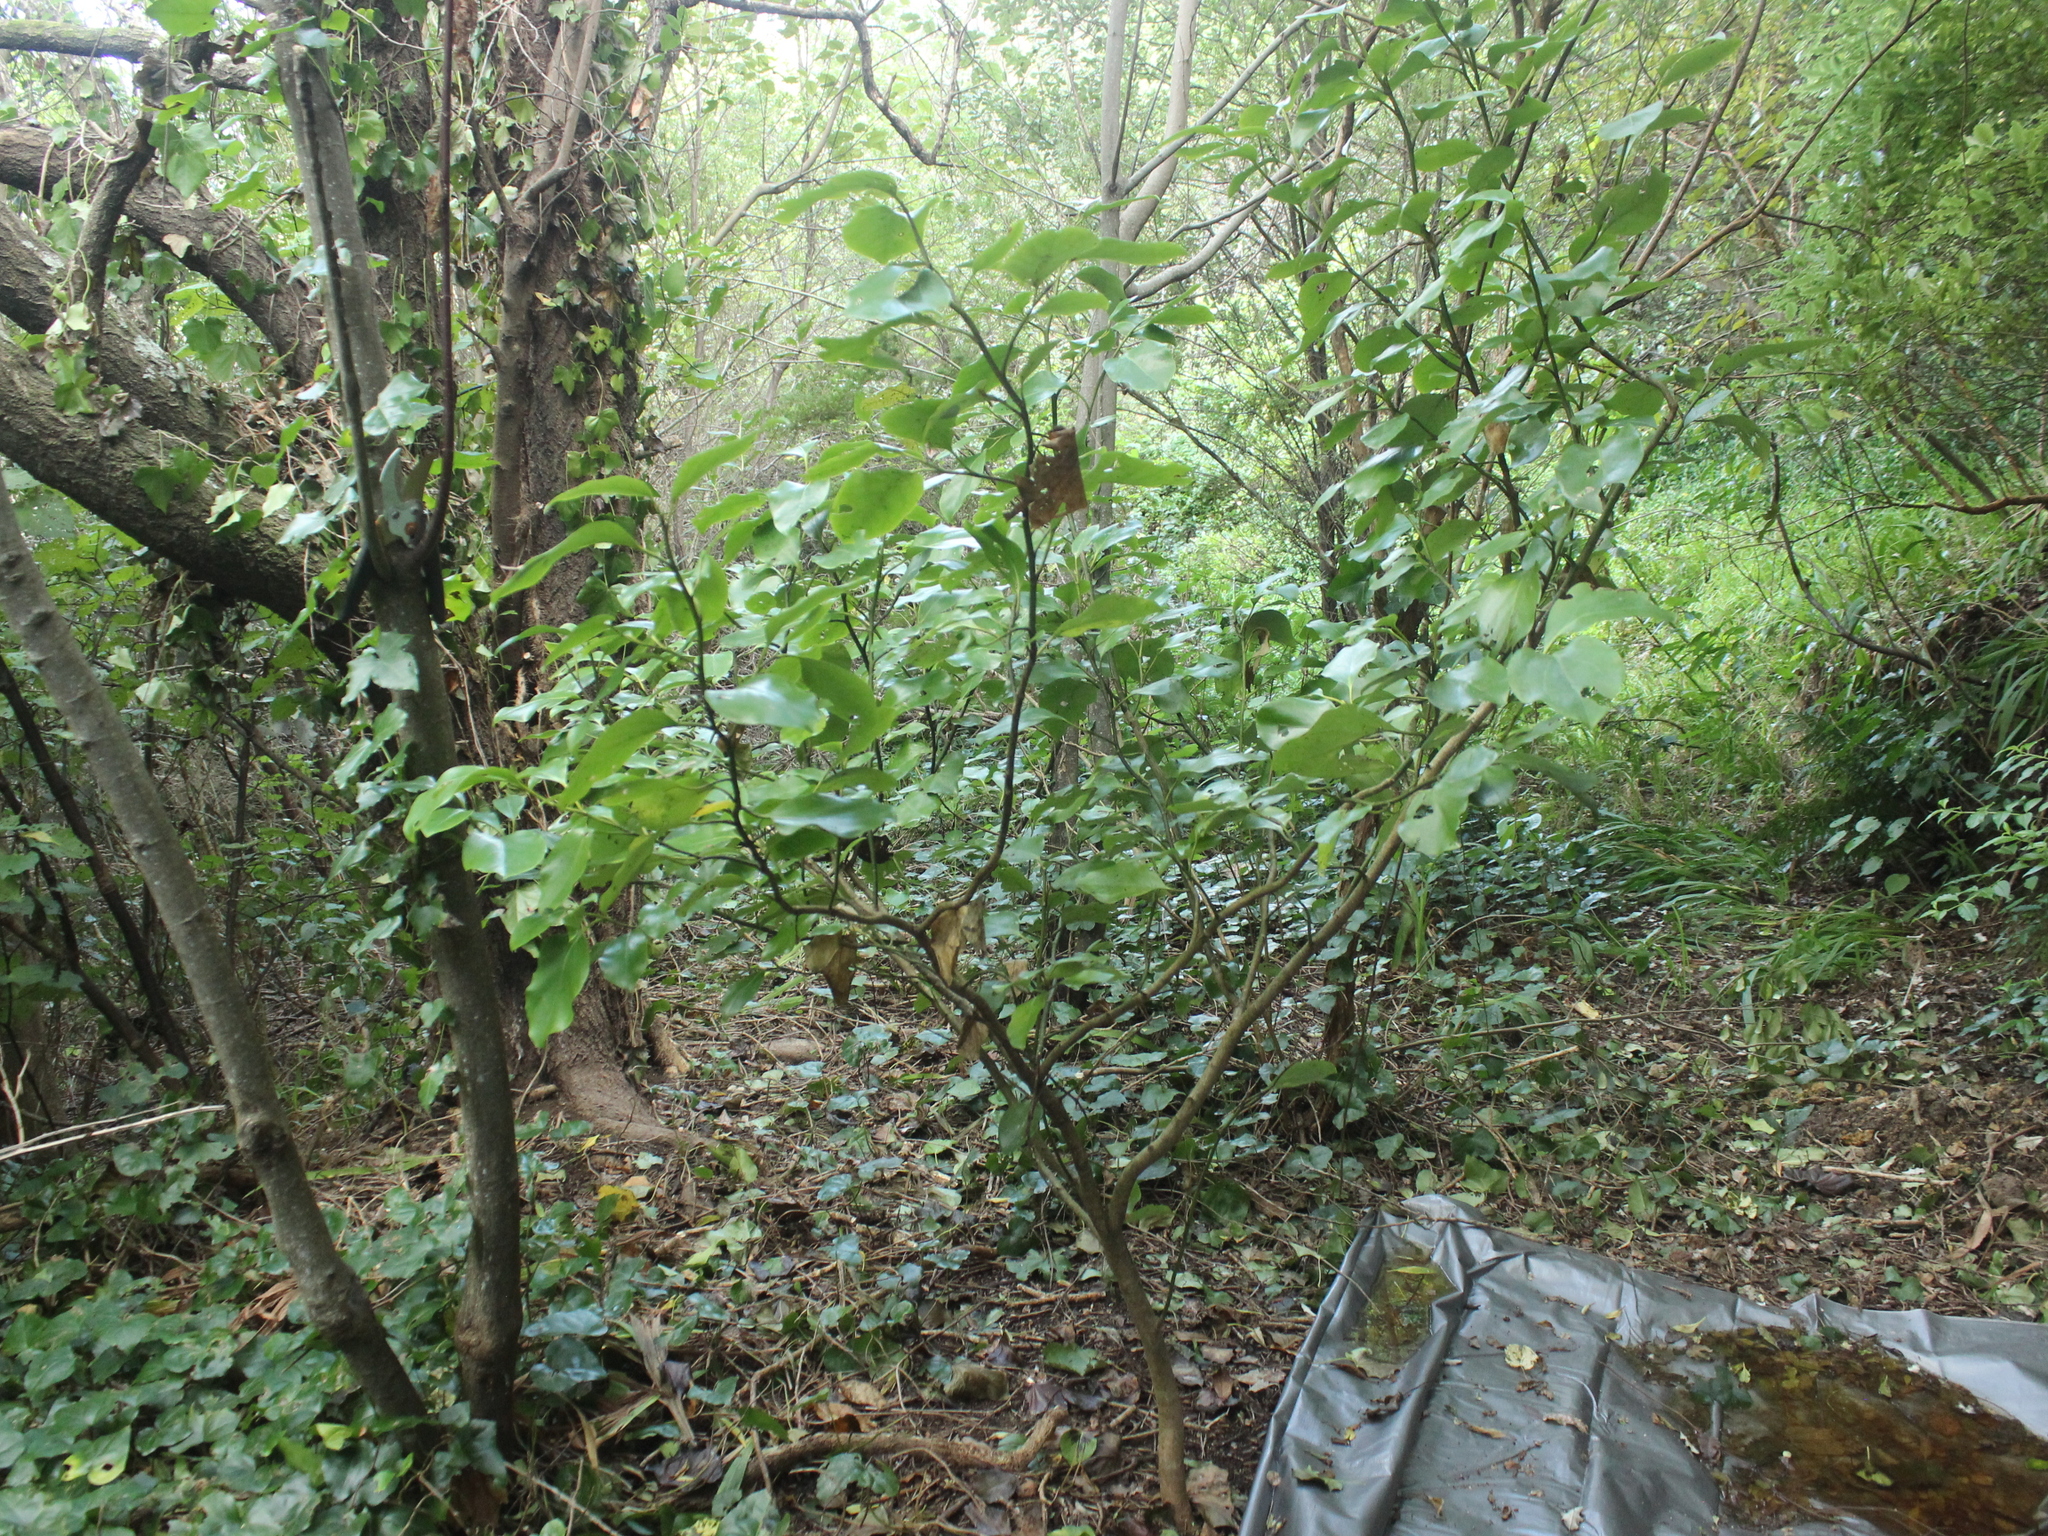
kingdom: Plantae
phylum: Tracheophyta
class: Magnoliopsida
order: Apiales
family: Griseliniaceae
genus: Griselinia
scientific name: Griselinia littoralis
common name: New zealand broadleaf
